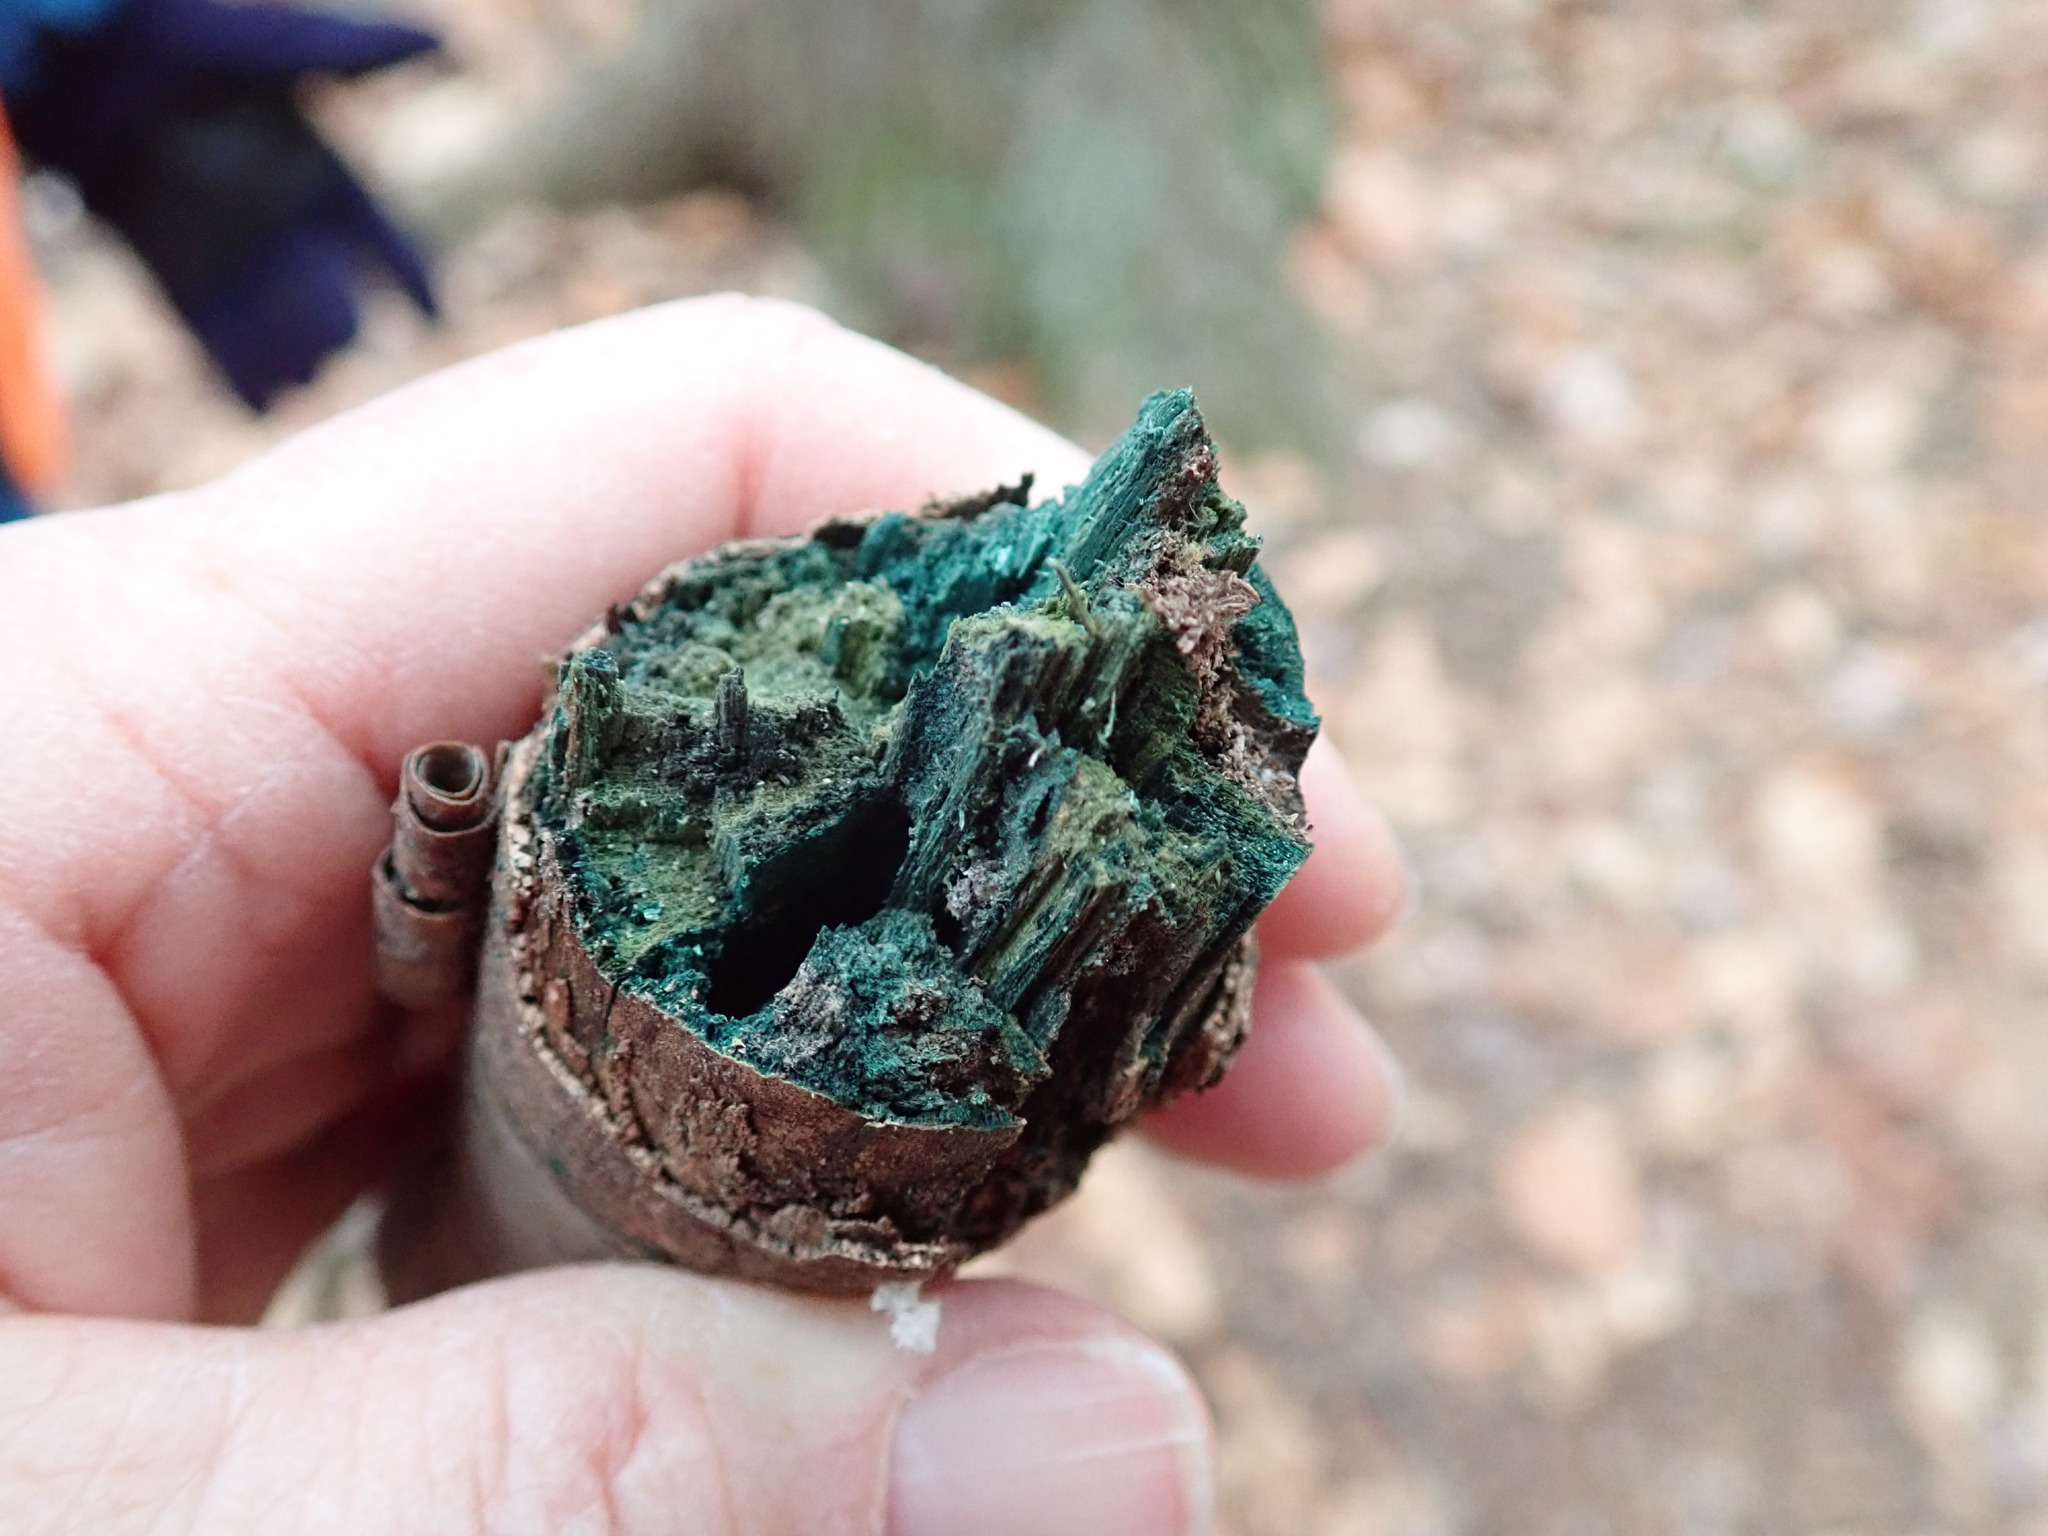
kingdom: Fungi
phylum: Ascomycota
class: Leotiomycetes
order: Helotiales
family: Chlorociboriaceae
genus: Chlorociboria
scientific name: Chlorociboria
